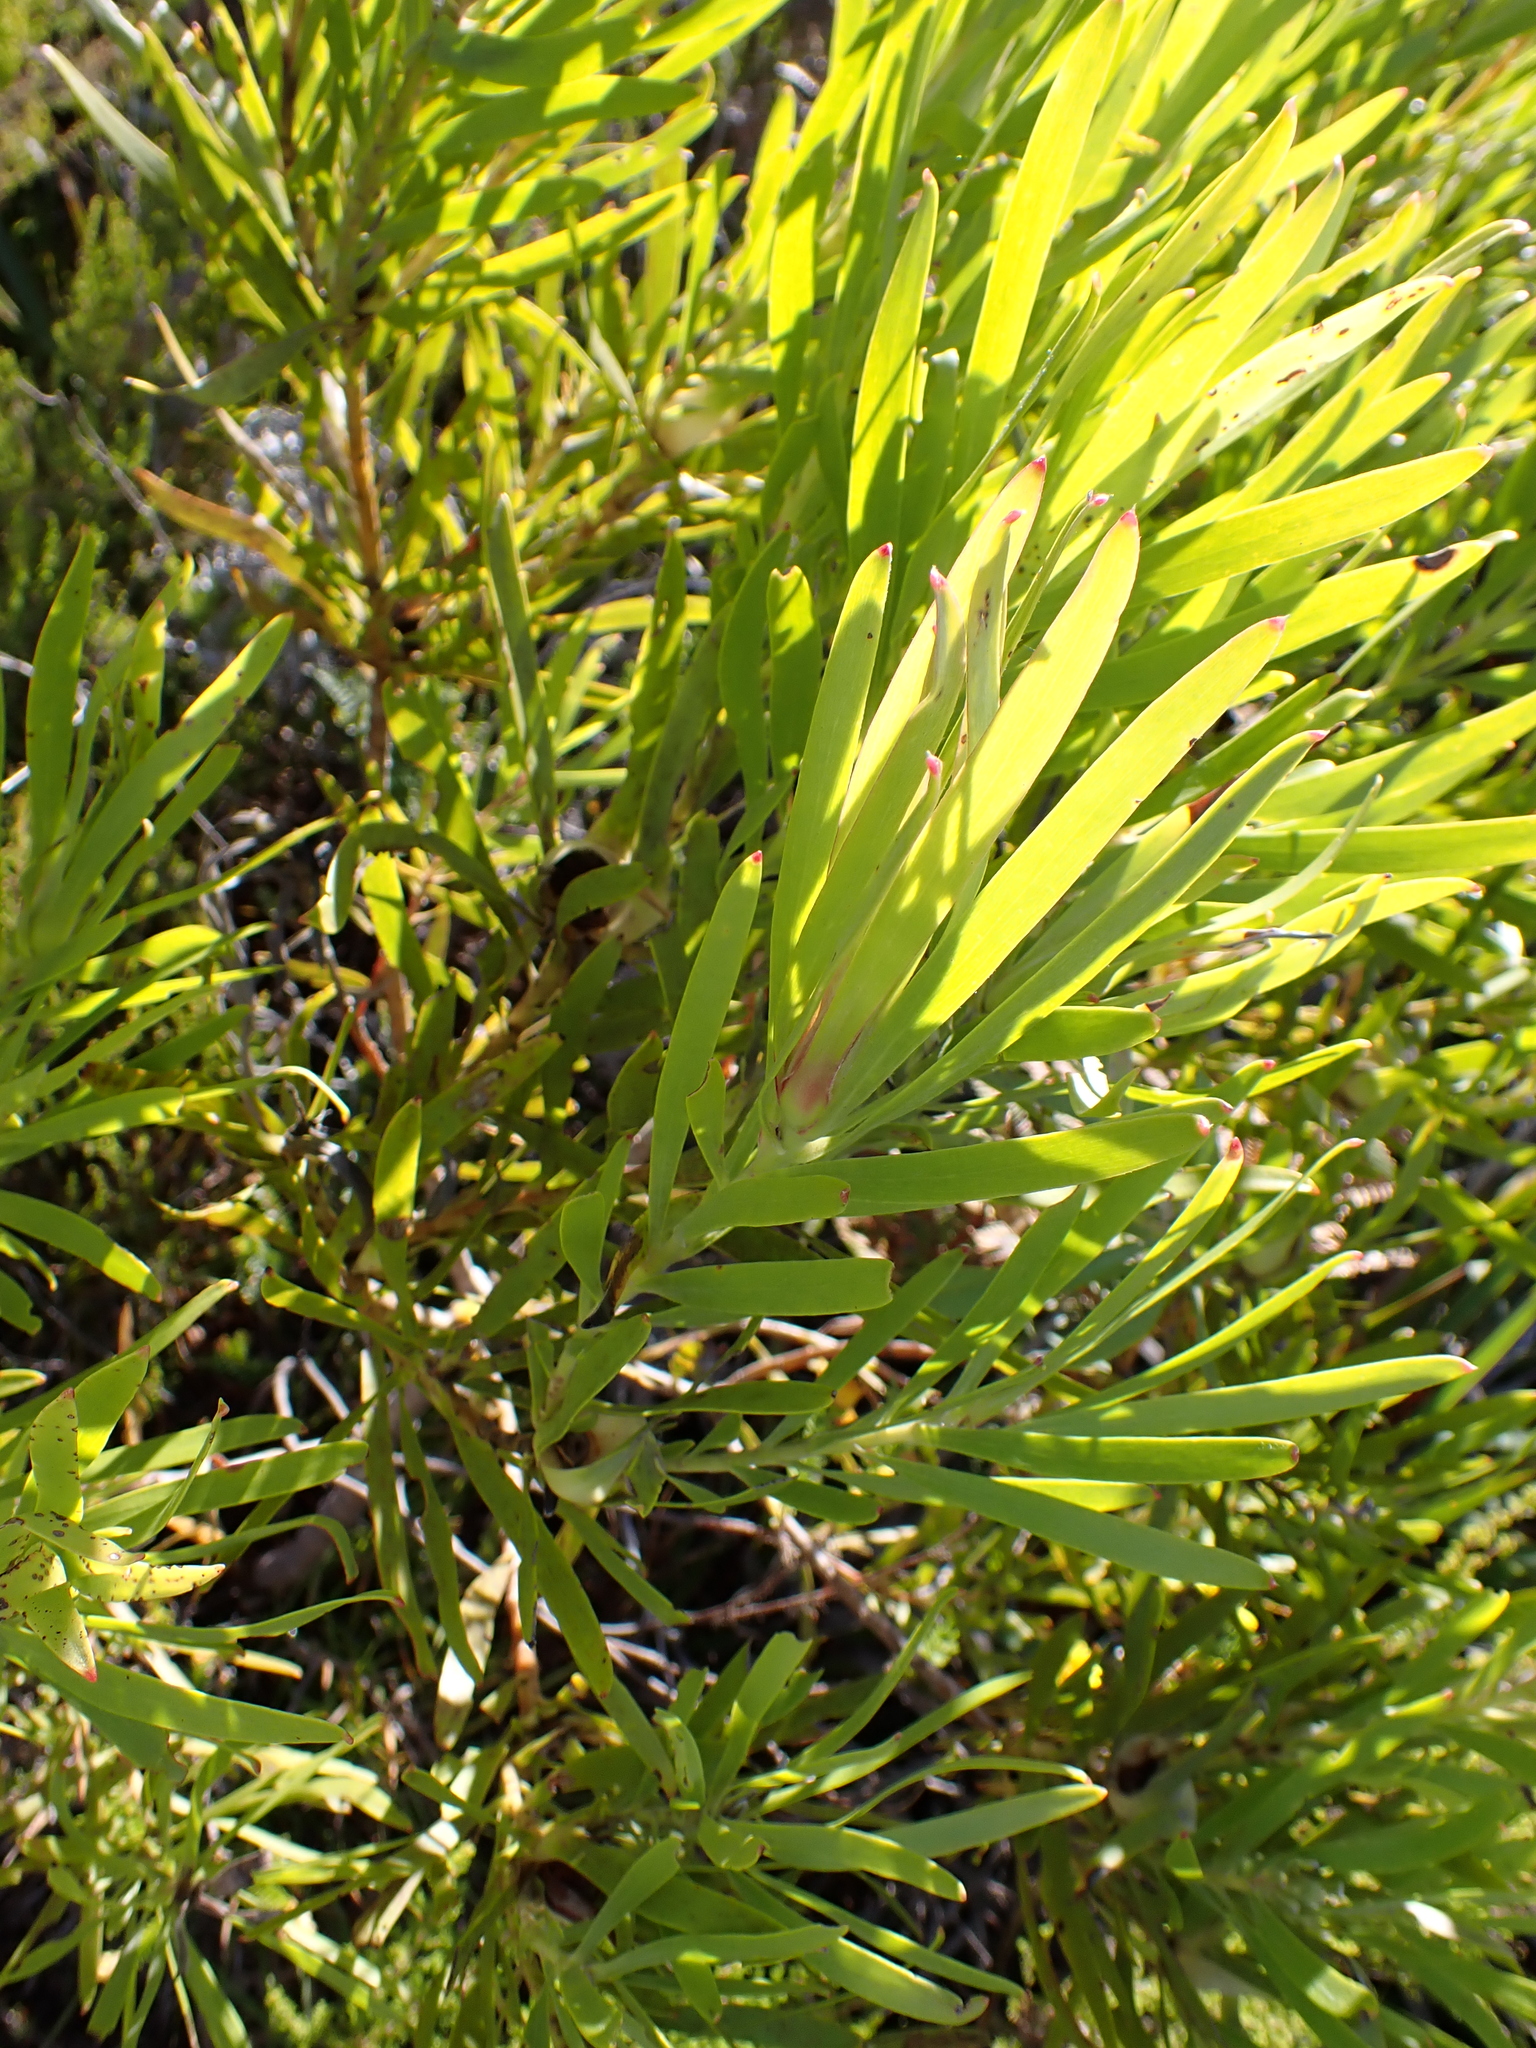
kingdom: Plantae
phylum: Tracheophyta
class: Magnoliopsida
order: Proteales
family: Proteaceae
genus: Leucadendron
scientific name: Leucadendron eucalyptifolium
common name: Gum-leaved conebush
